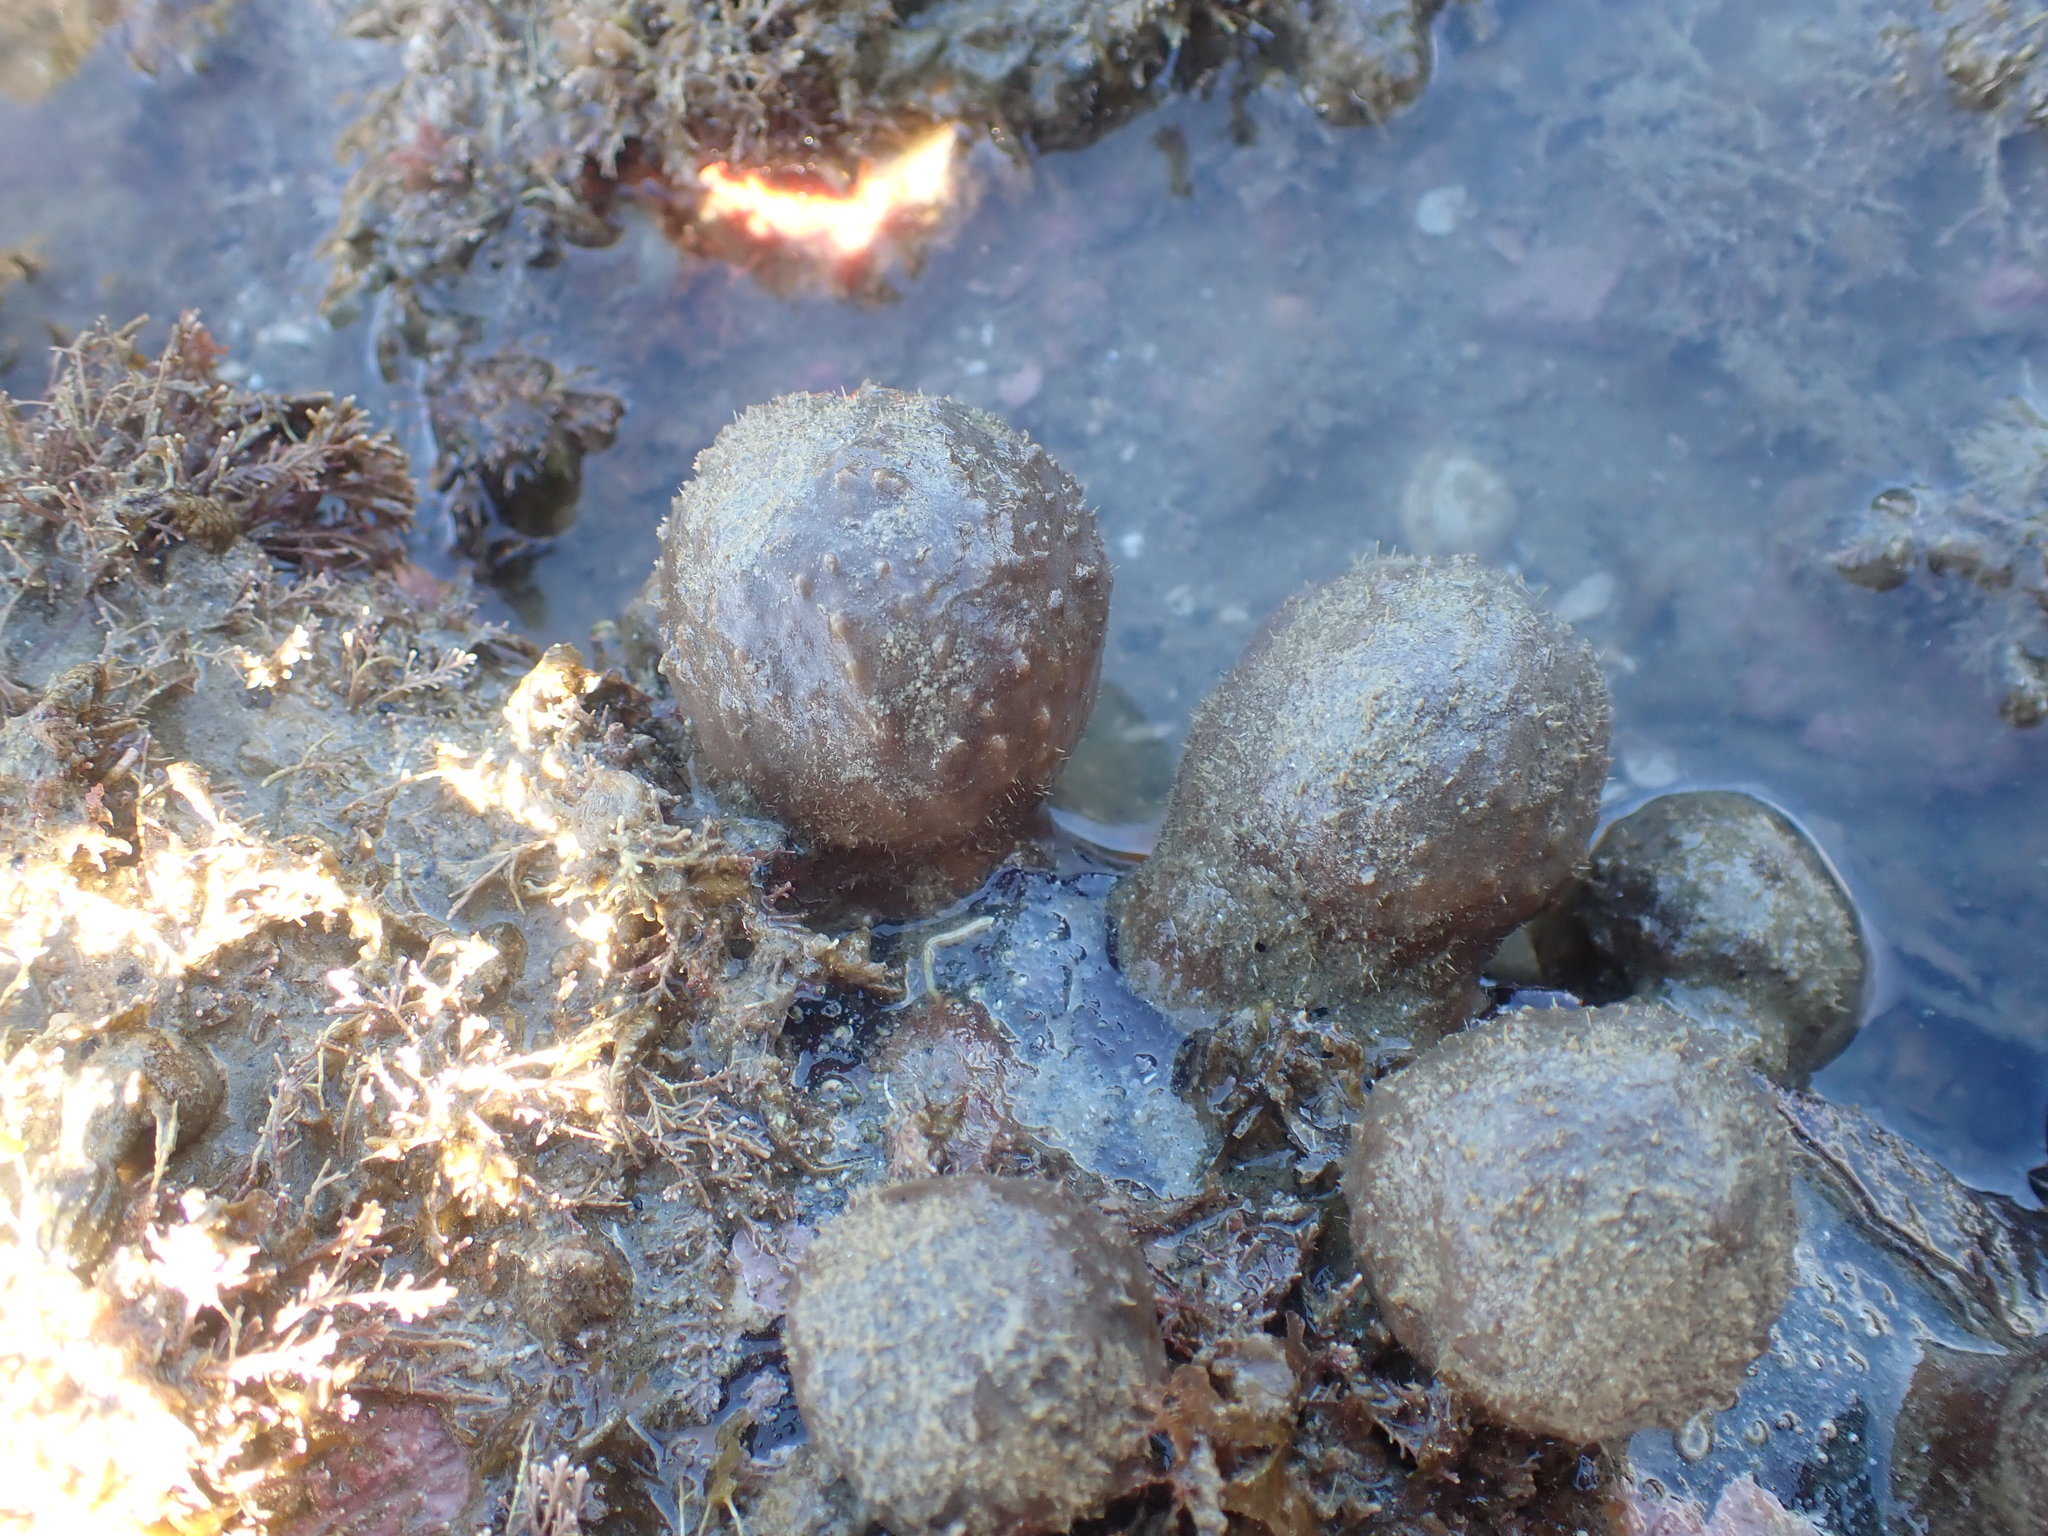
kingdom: Animalia
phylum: Porifera
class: Demospongiae
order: Suberitida
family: Suberitidae
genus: Aaptos
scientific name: Aaptos tenta
